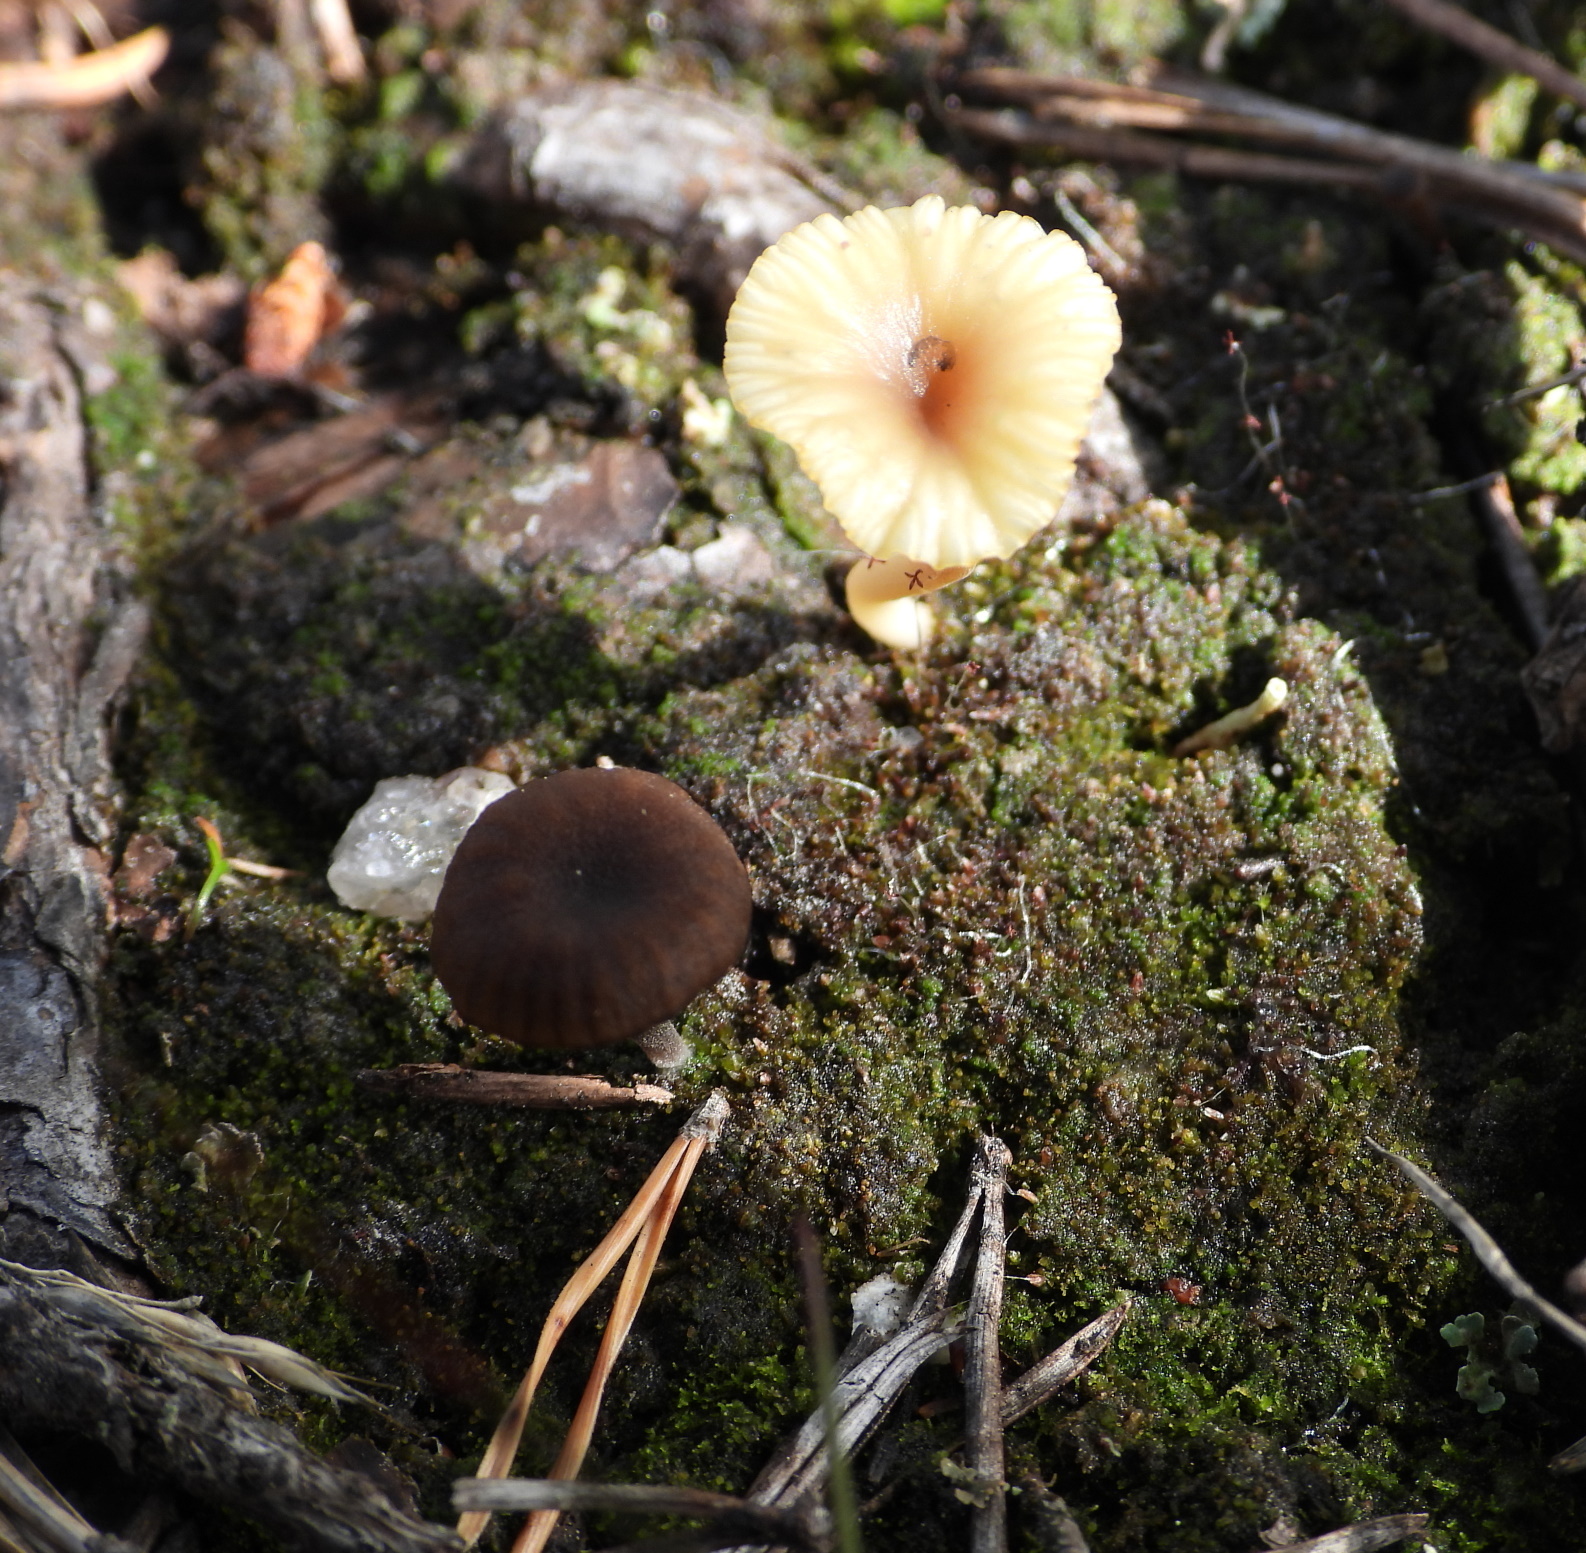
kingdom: Fungi
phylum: Basidiomycota
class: Agaricomycetes
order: Agaricales
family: Hygrophoraceae
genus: Lichenomphalia
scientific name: Lichenomphalia
